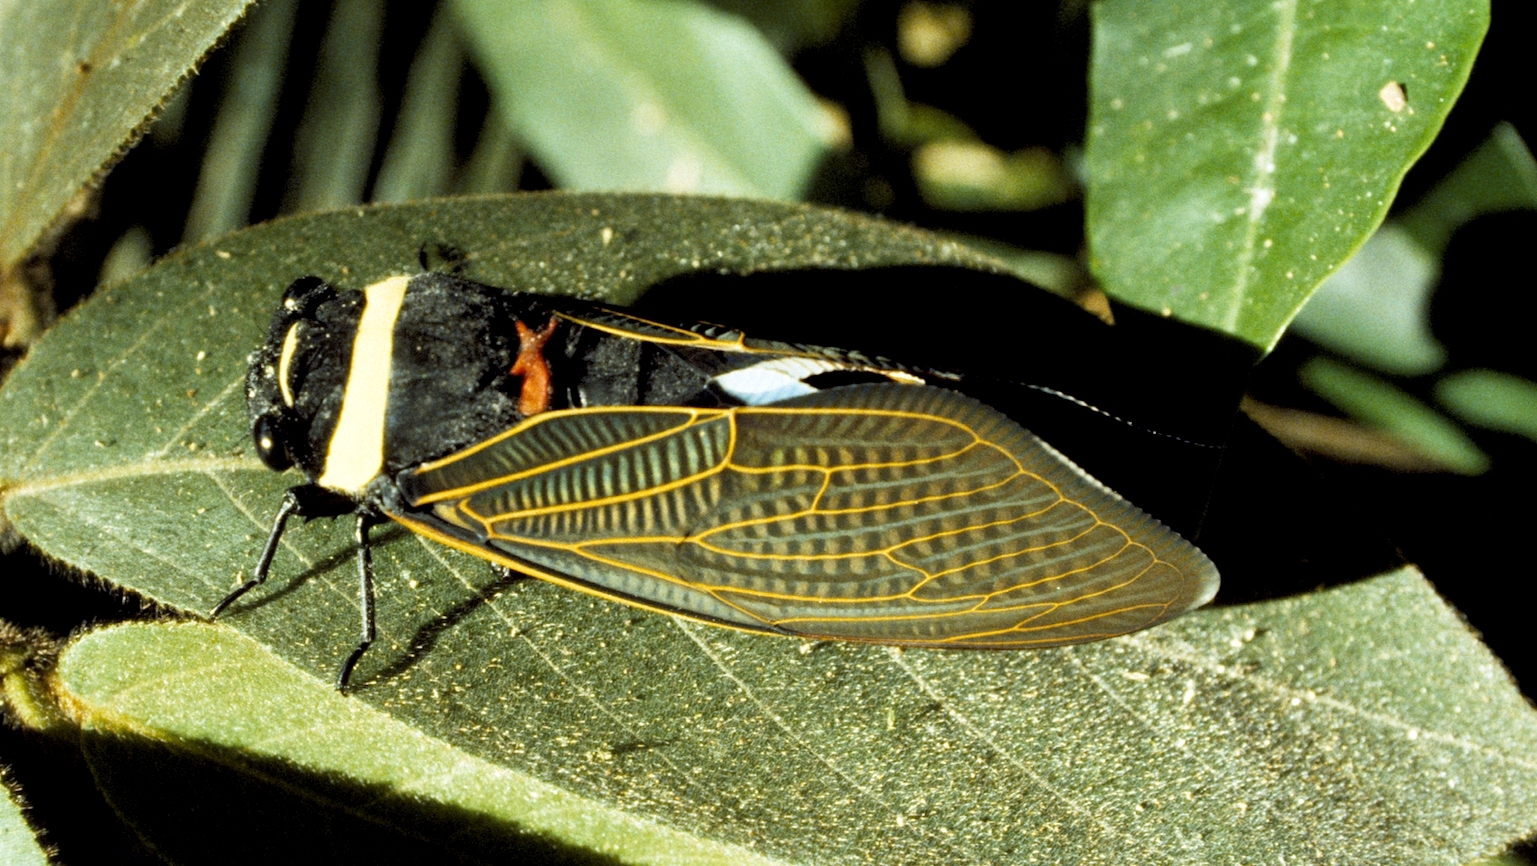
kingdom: Animalia
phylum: Arthropoda
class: Insecta
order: Hemiptera
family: Cicadidae
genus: Tacua
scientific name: Tacua speciosa
